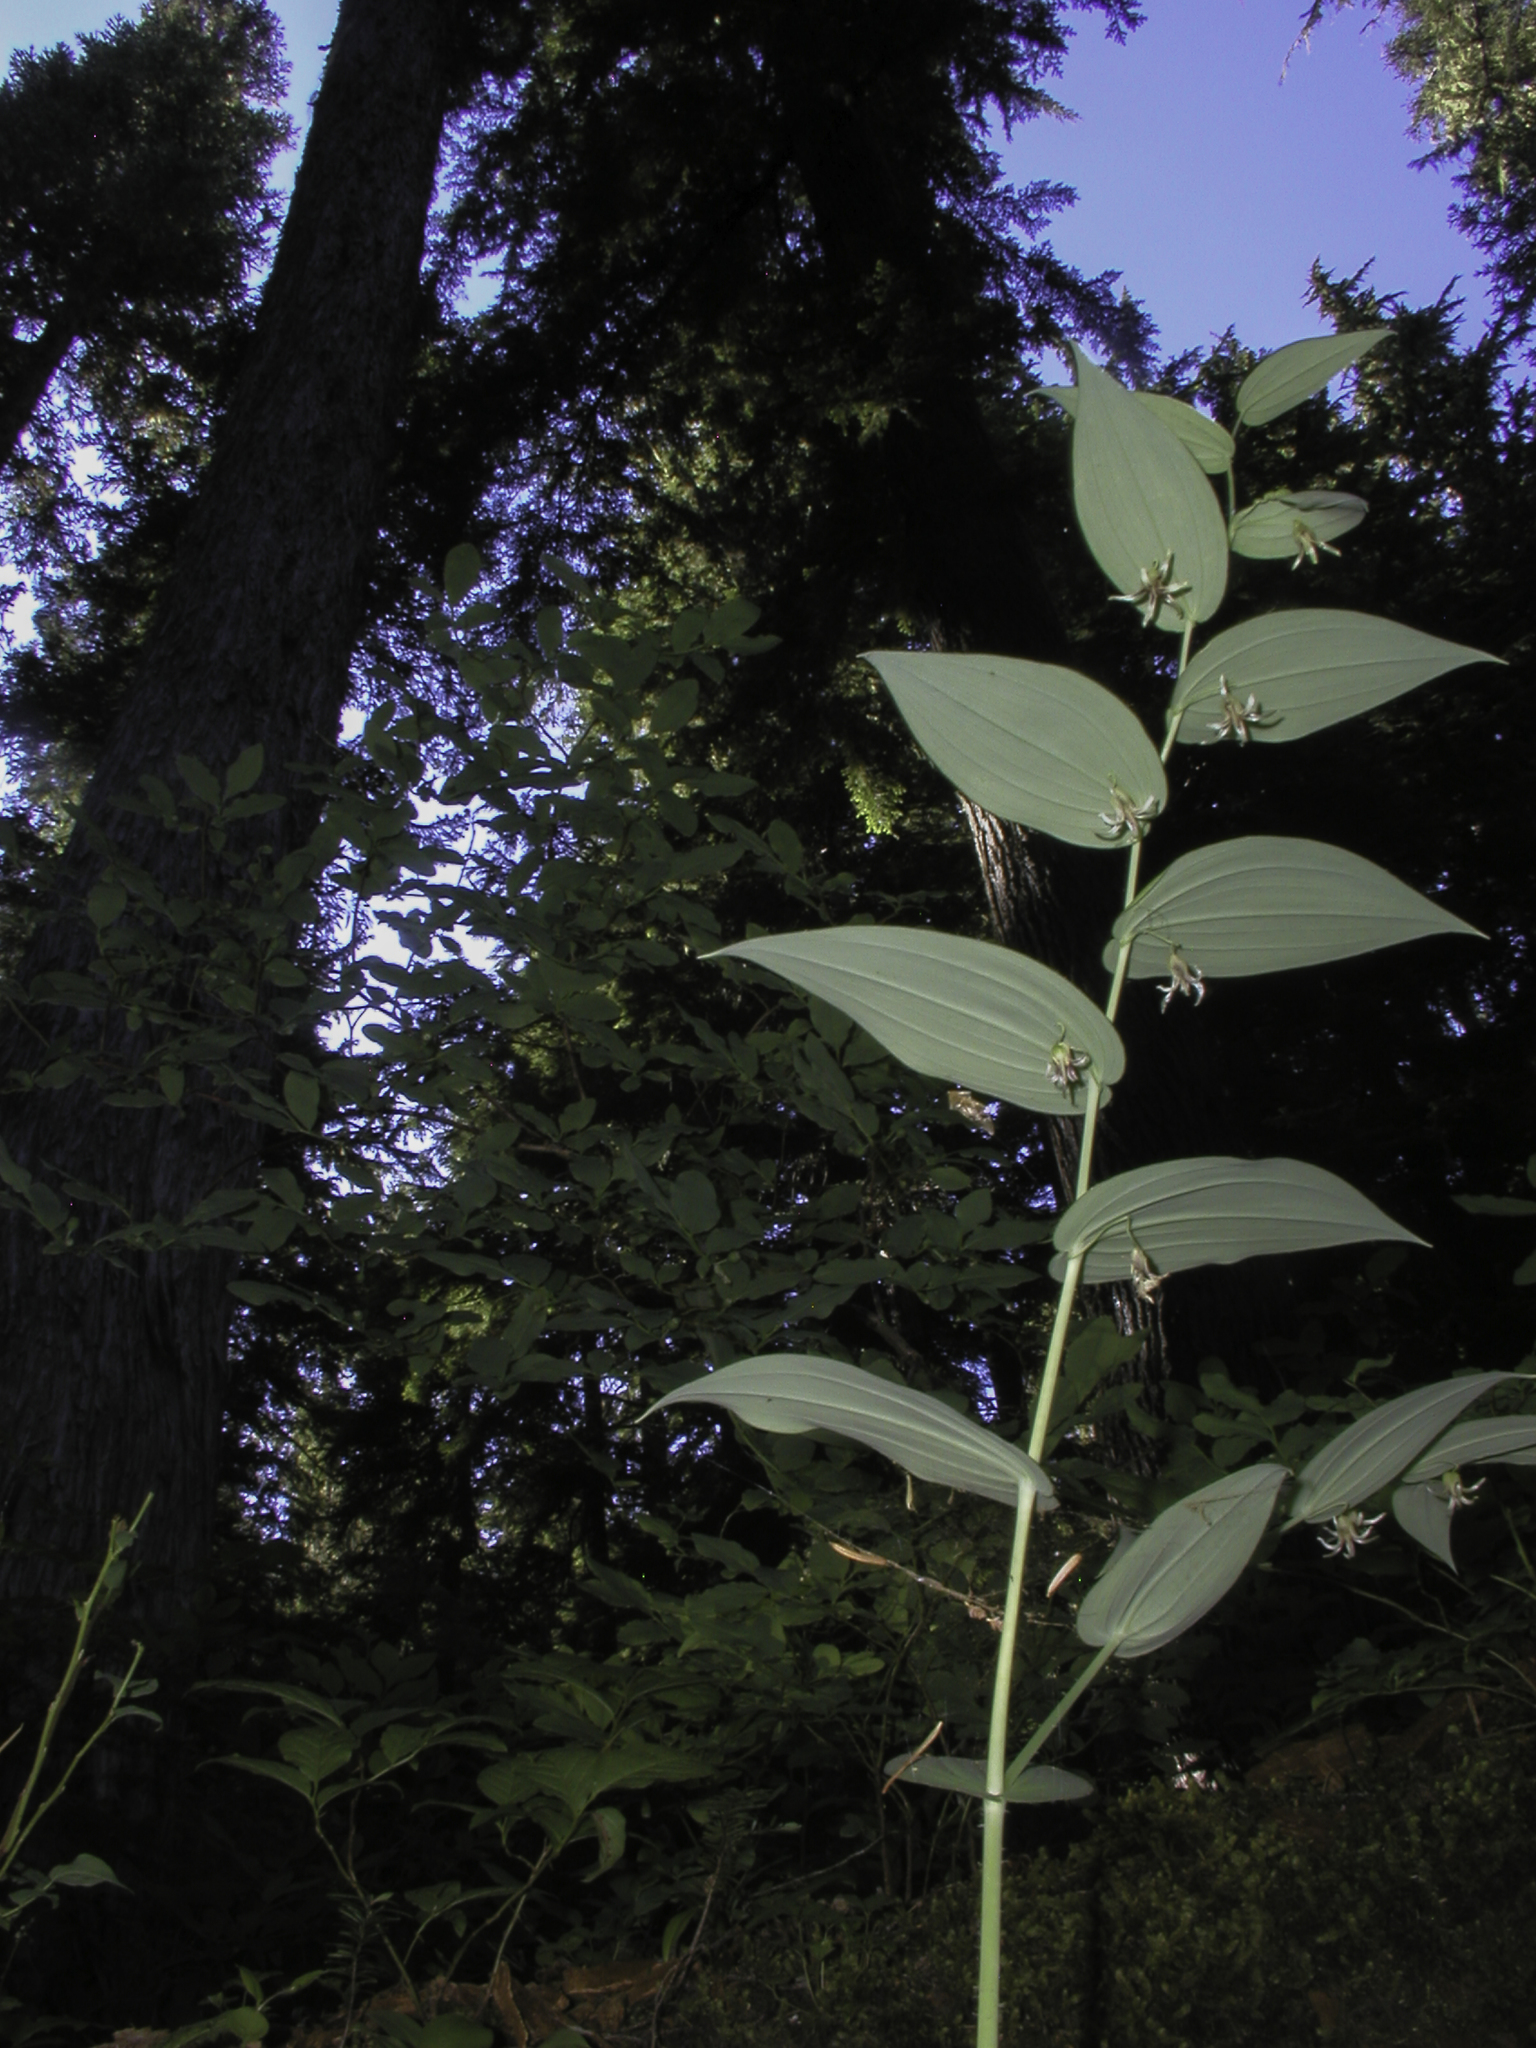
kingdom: Plantae
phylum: Tracheophyta
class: Liliopsida
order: Liliales
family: Liliaceae
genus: Streptopus
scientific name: Streptopus amplexifolius
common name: Clasp twisted stalk
